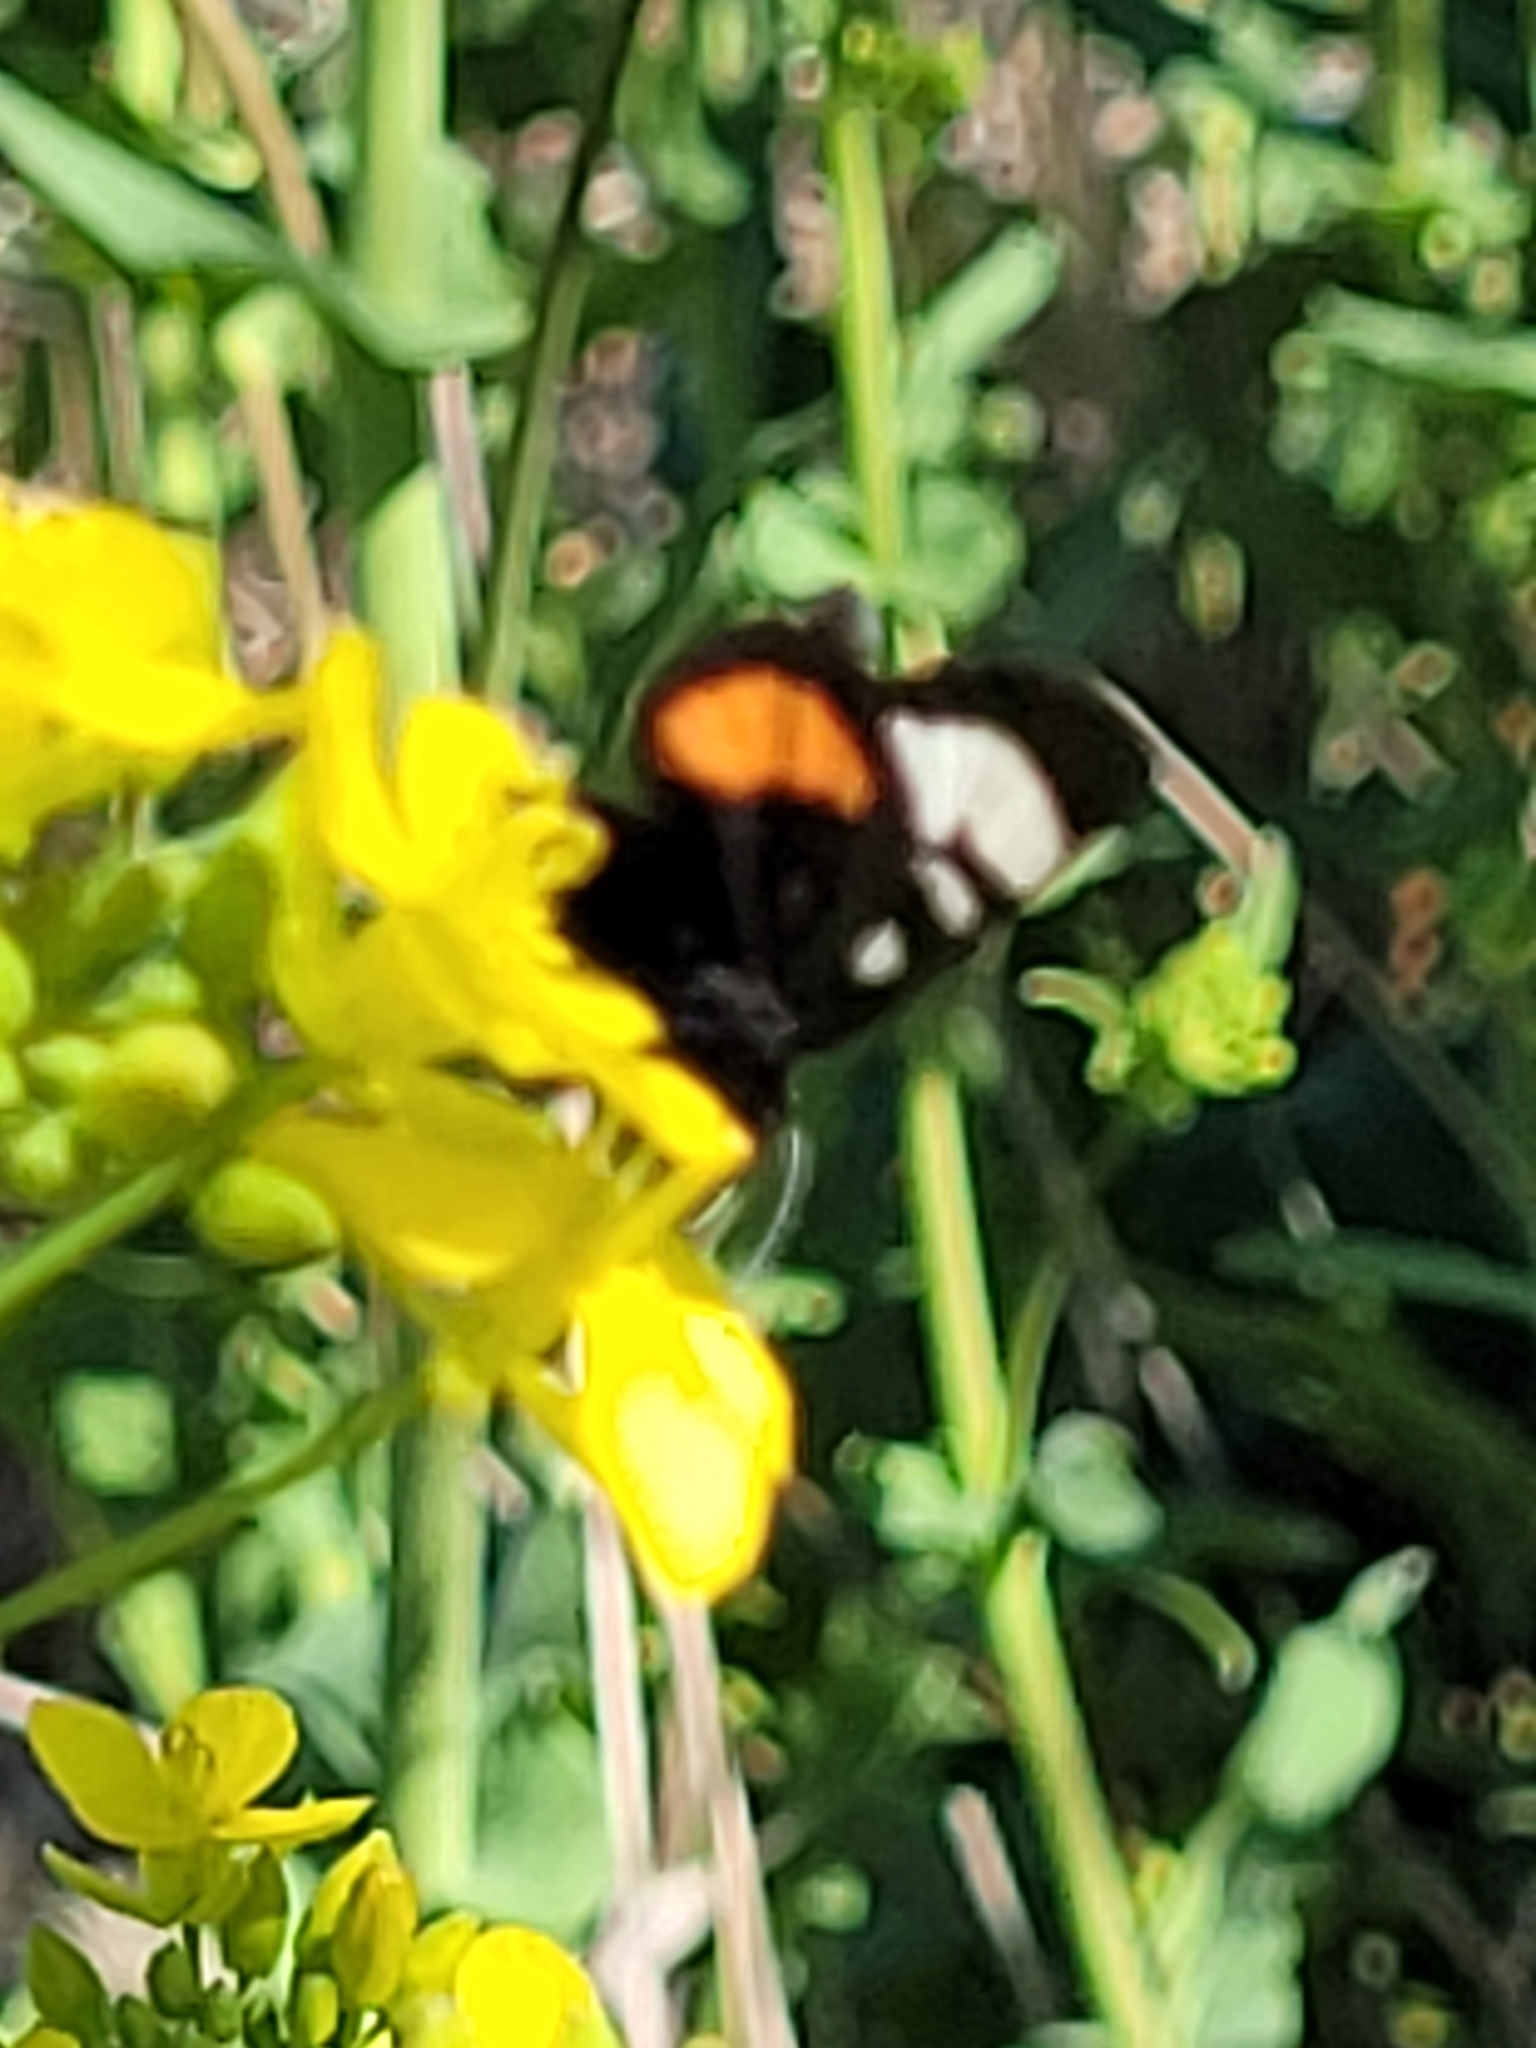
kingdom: Animalia
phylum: Arthropoda
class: Insecta
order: Lepidoptera
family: Noctuidae
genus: Psychomorpha
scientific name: Psychomorpha epimenis
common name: Grapevine epimenis moth
